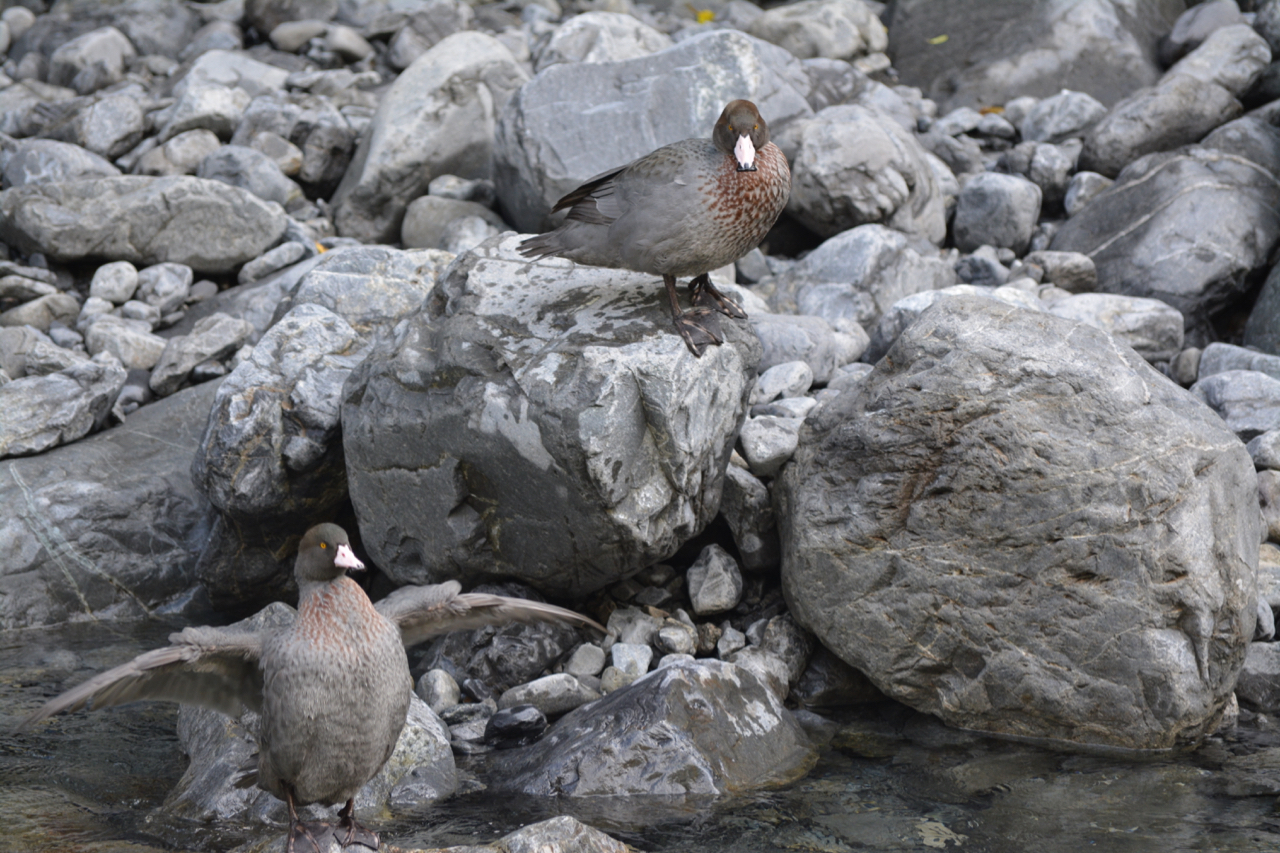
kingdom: Animalia
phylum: Chordata
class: Aves
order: Anseriformes
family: Anatidae
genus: Hymenolaimus
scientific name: Hymenolaimus malacorhynchos
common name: Blue duck
